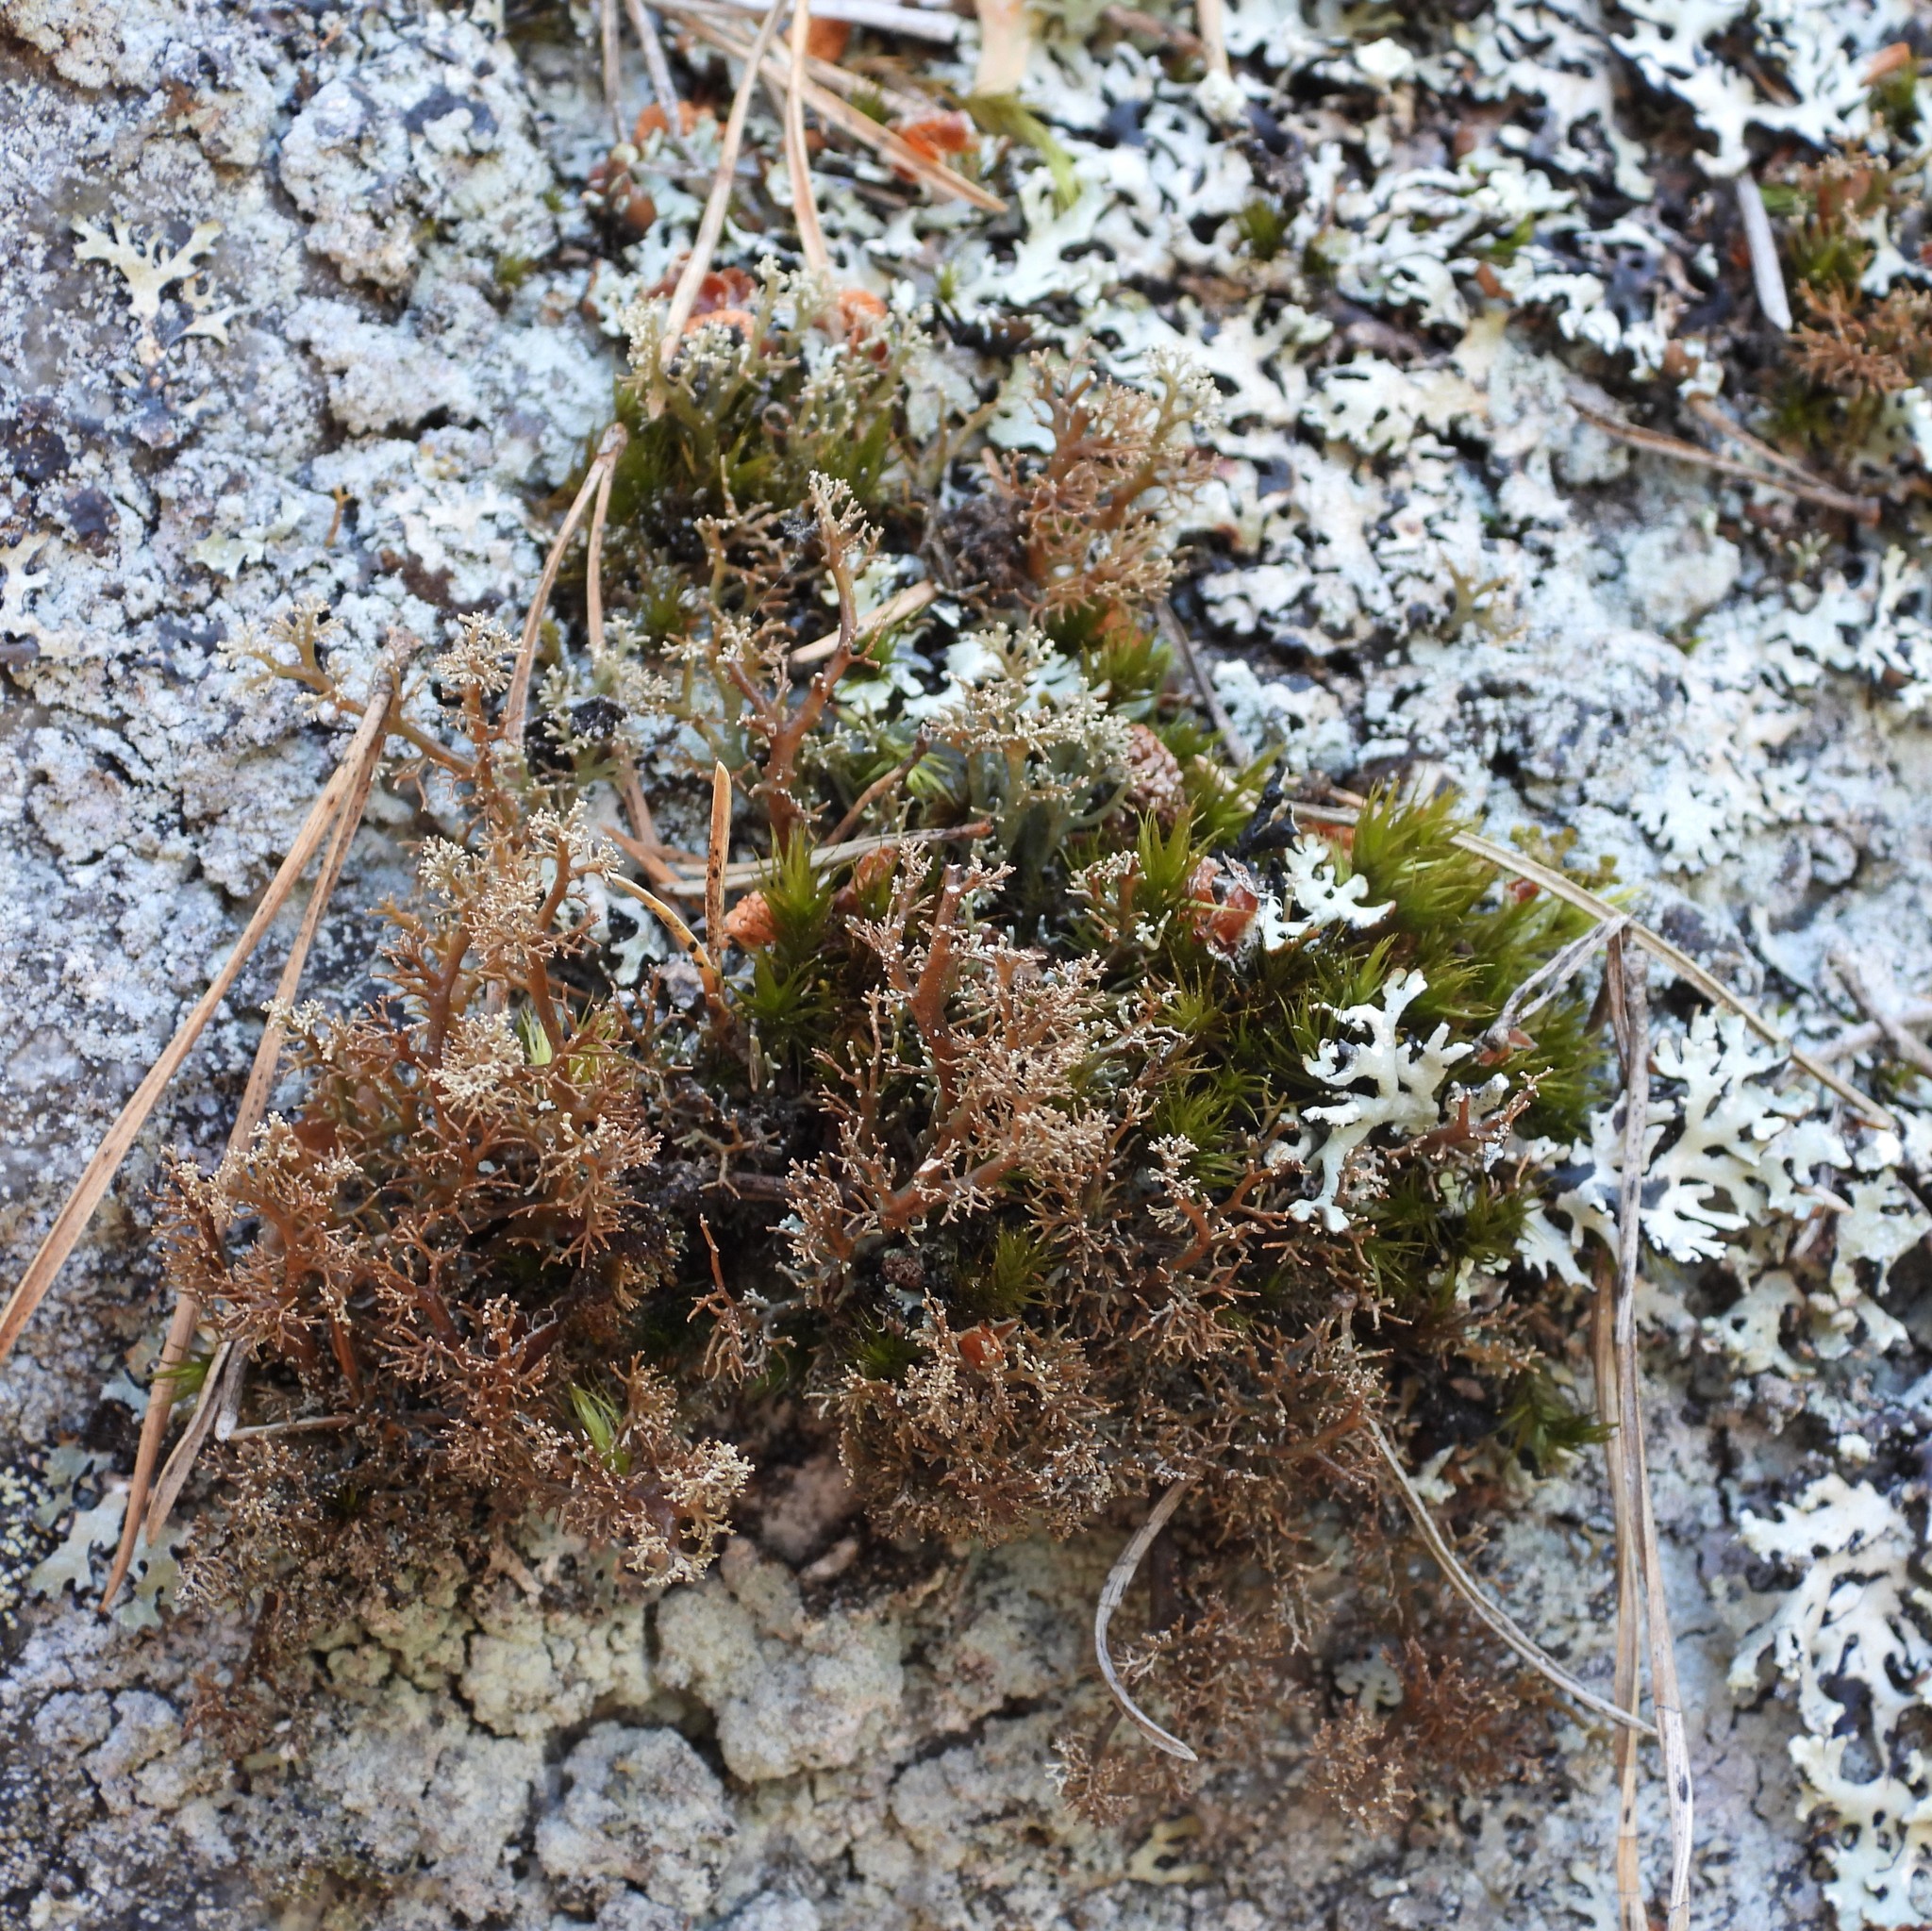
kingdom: Fungi
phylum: Ascomycota
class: Lecanoromycetes
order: Lecanorales
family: Sphaerophoraceae
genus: Sphaerophorus
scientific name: Sphaerophorus fragilis
